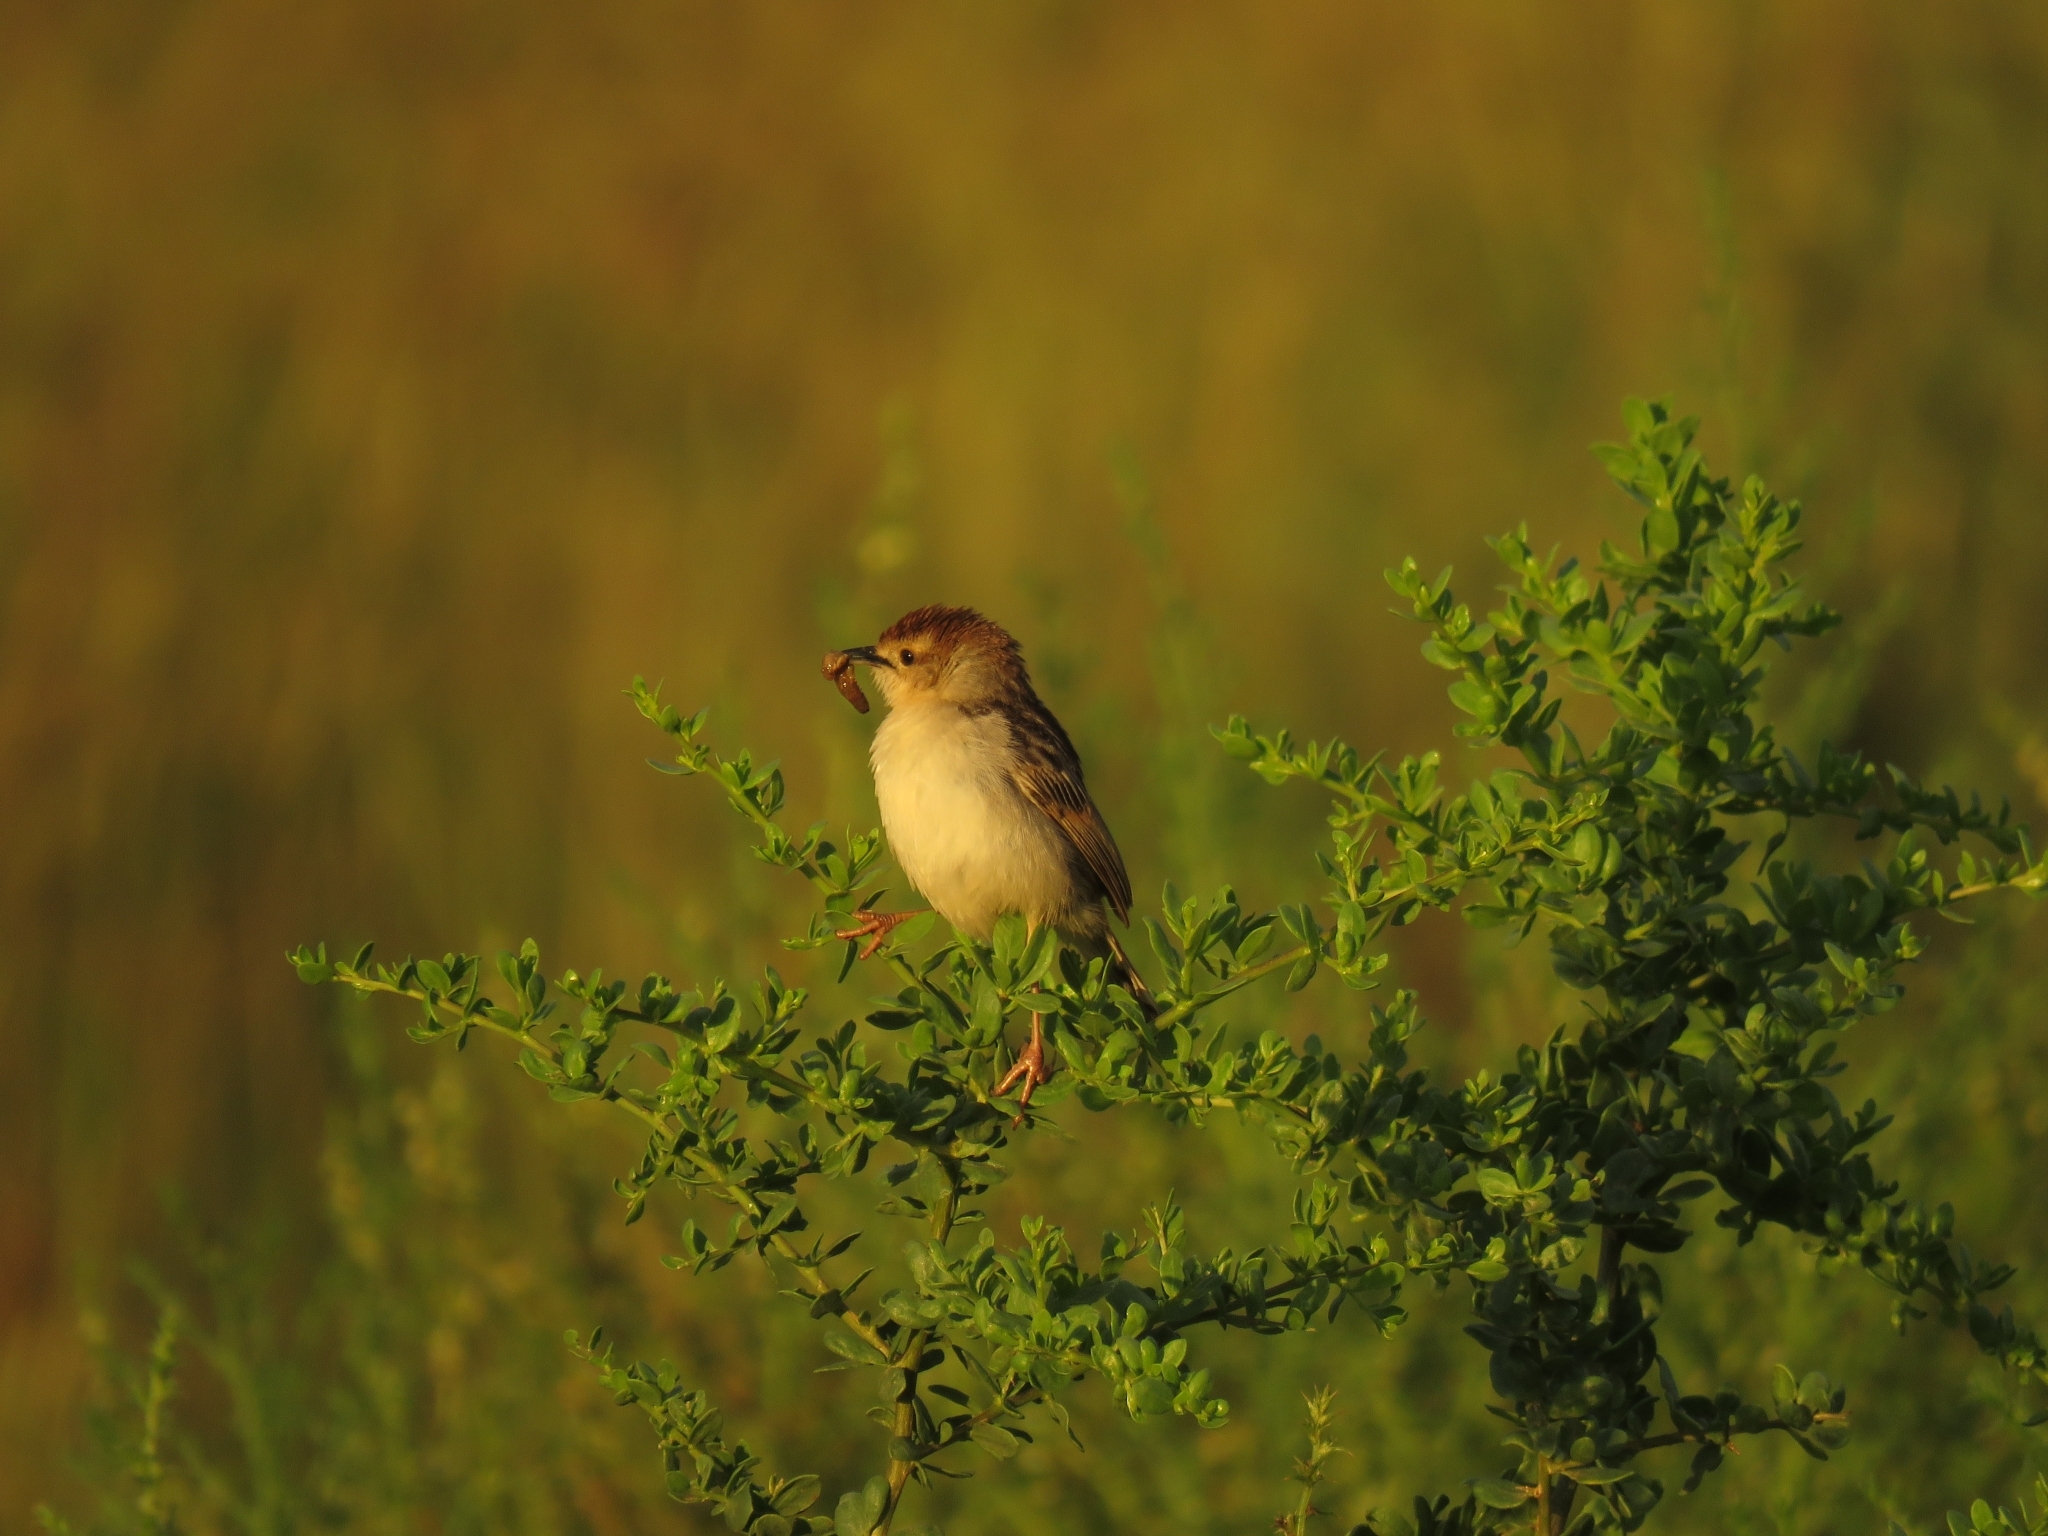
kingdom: Animalia
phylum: Chordata
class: Aves
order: Passeriformes
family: Cisticolidae
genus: Cisticola
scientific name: Cisticola tinniens
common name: Levaillant's cisticola
